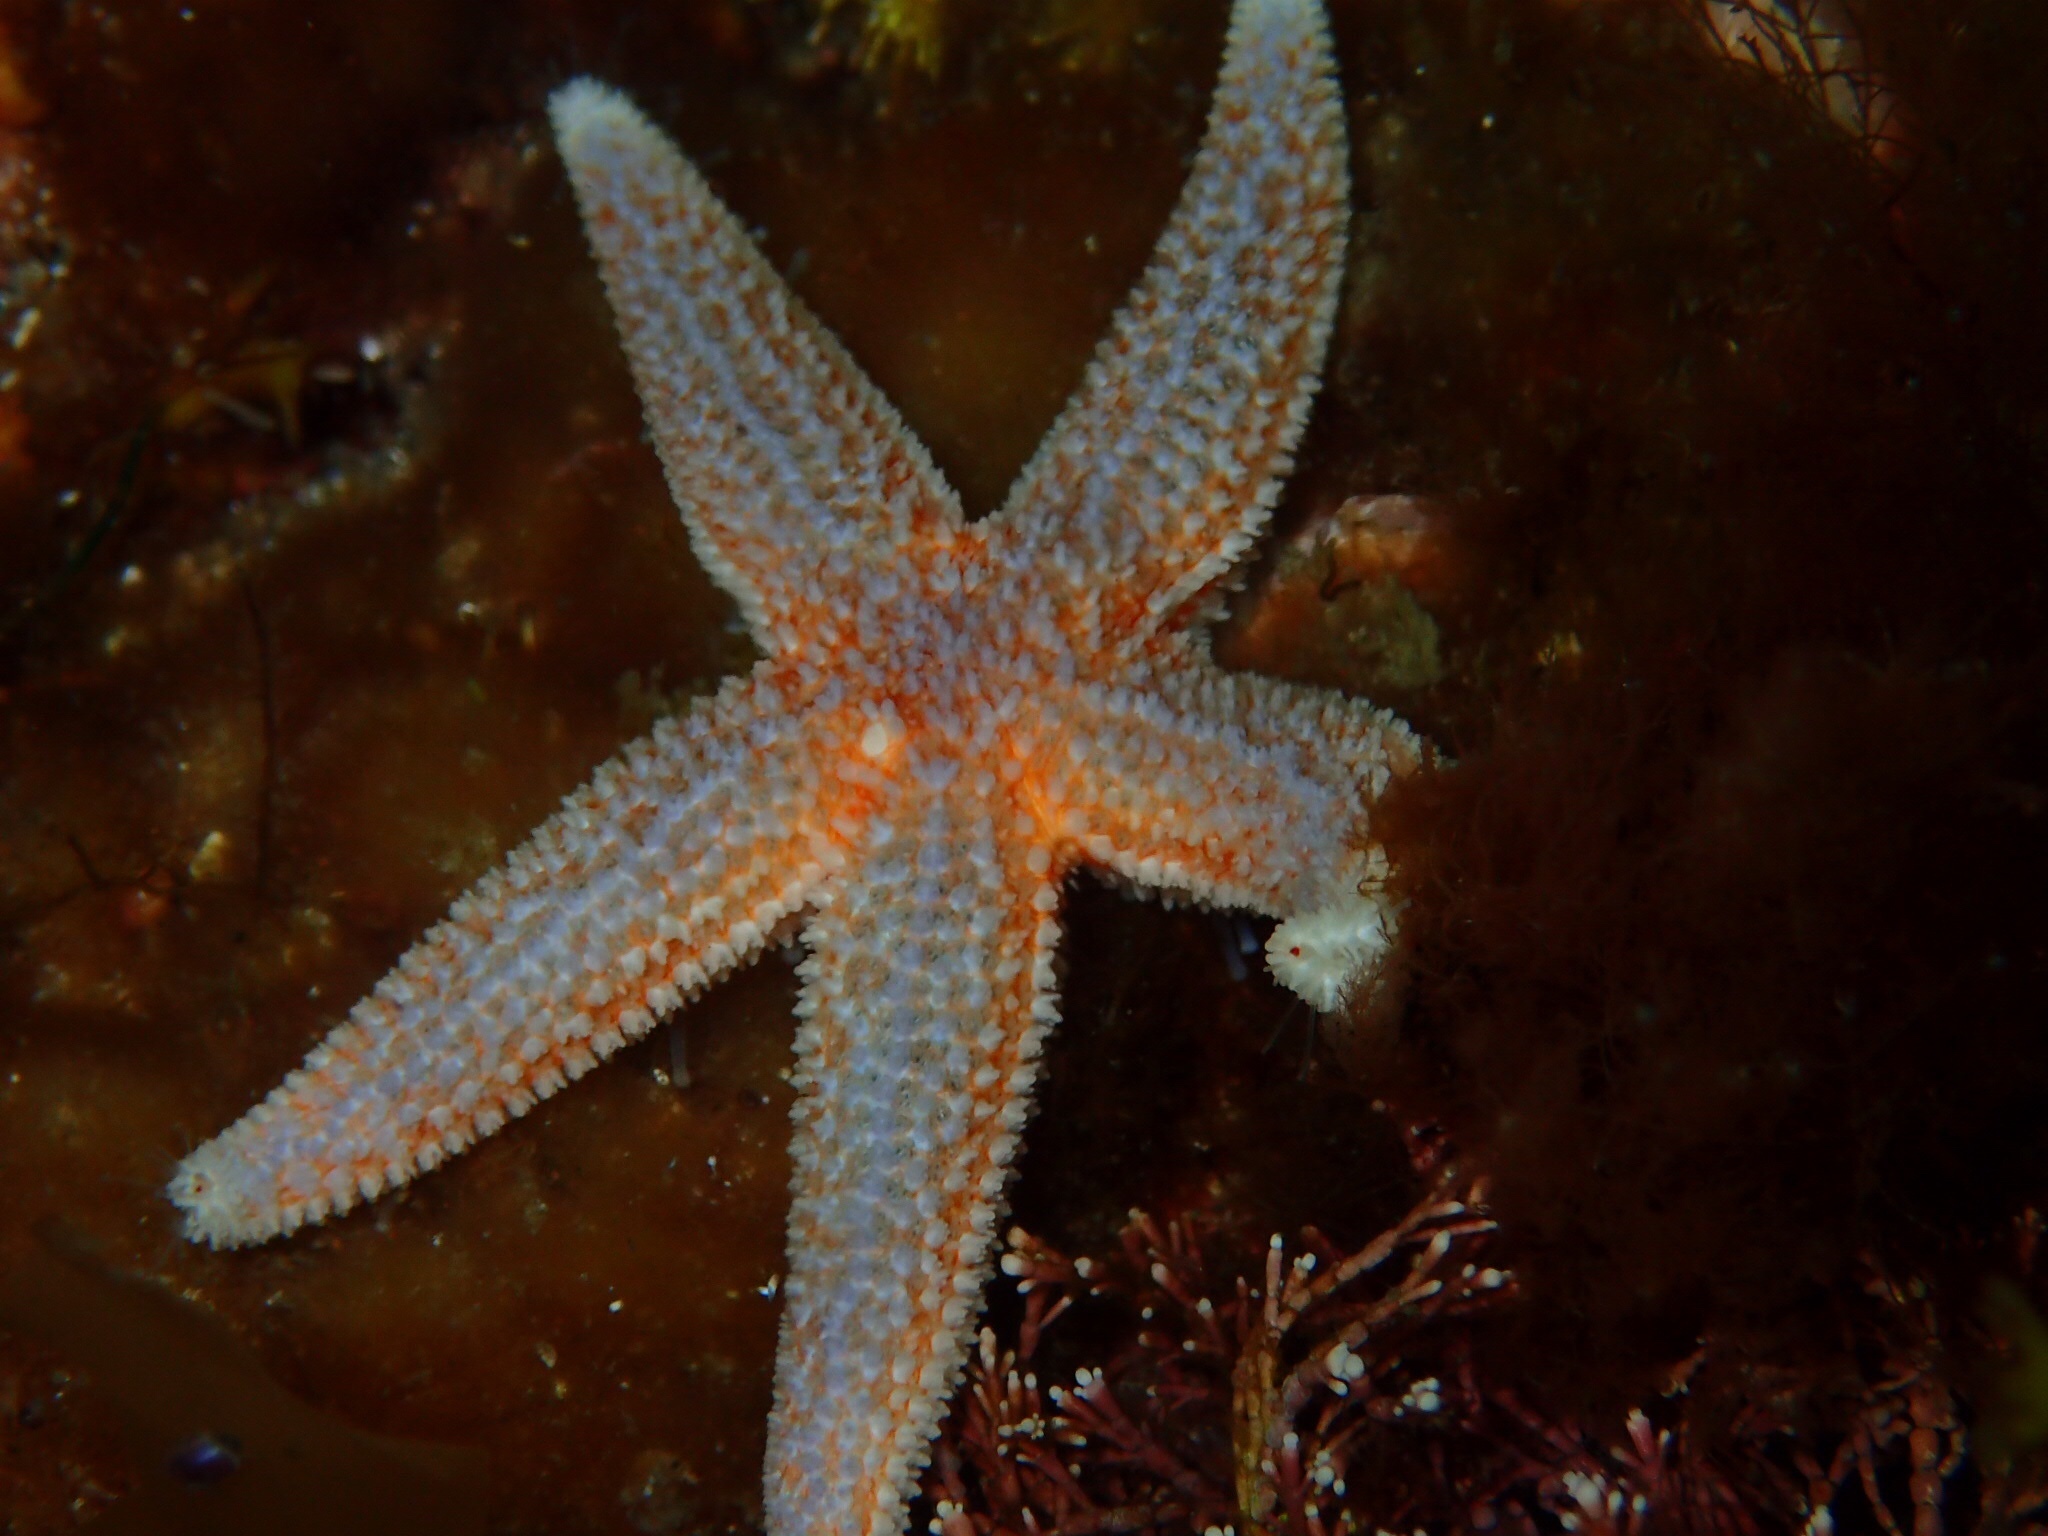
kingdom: Animalia
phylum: Echinodermata
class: Asteroidea
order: Forcipulatida
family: Asteriidae
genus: Asterias
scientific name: Asterias rubens
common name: Common starfish
